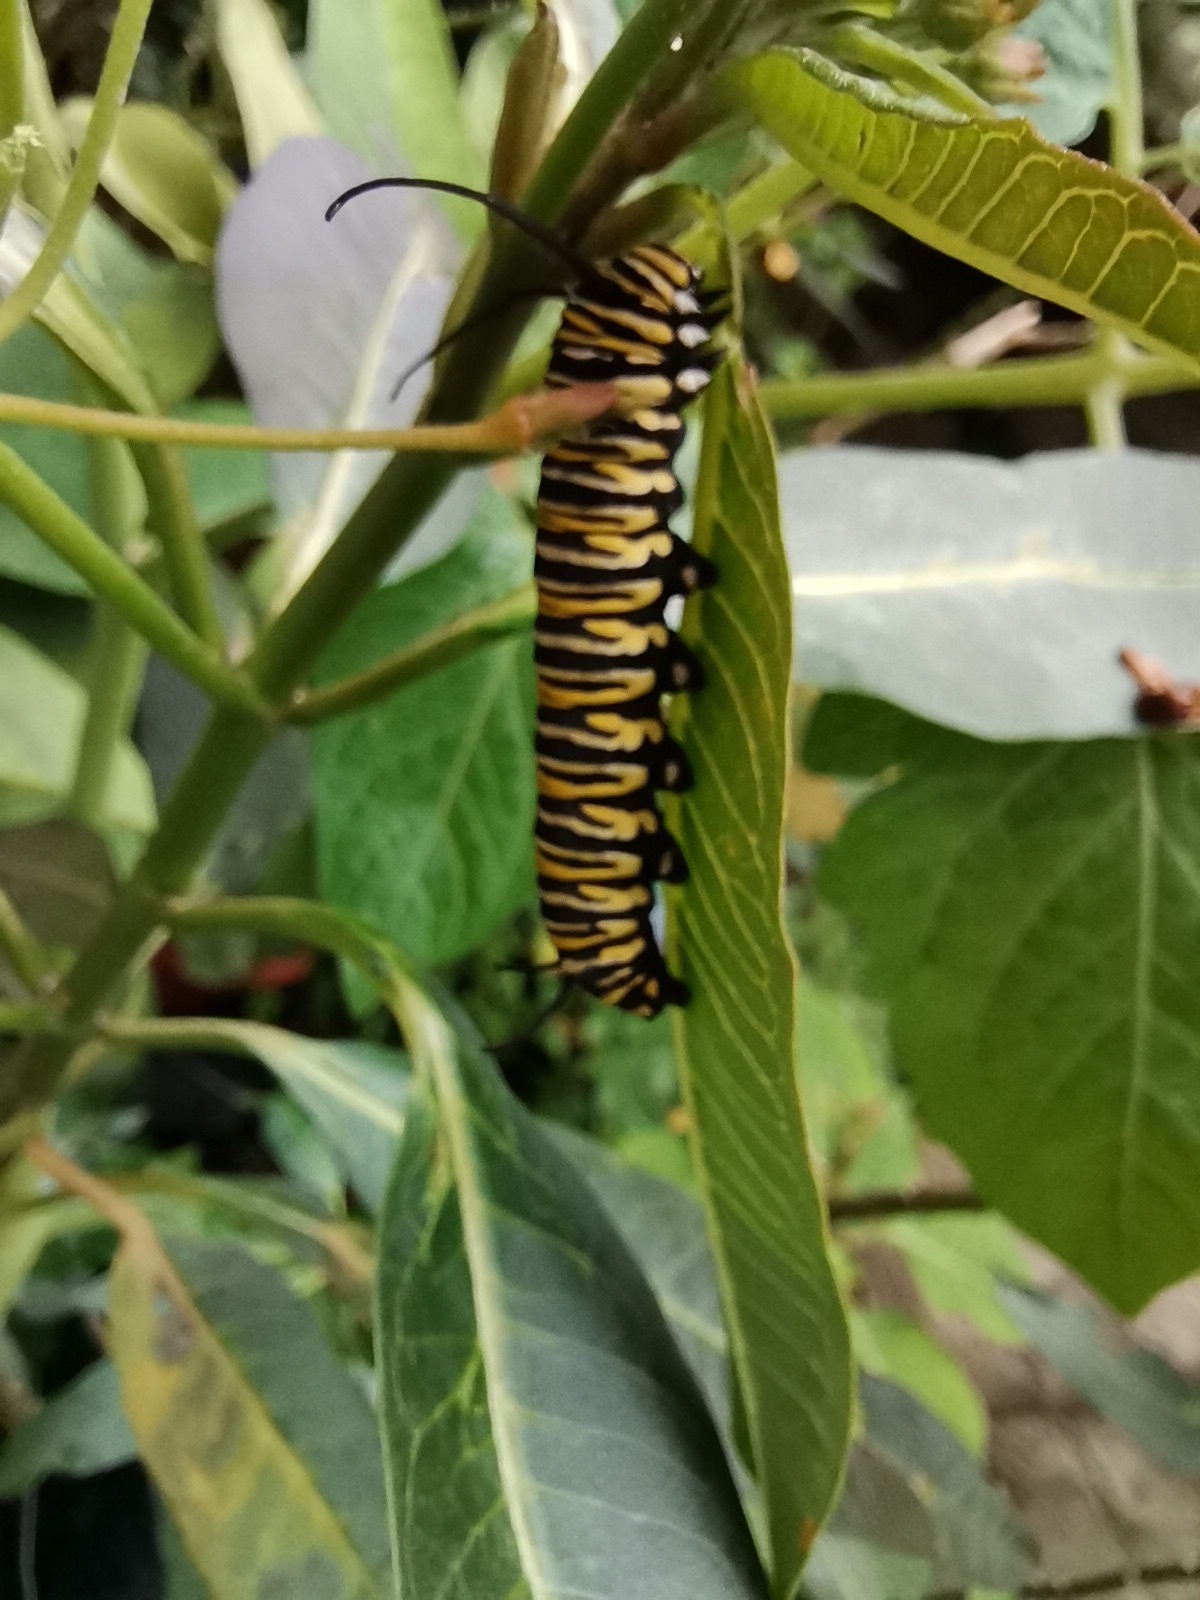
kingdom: Animalia
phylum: Arthropoda
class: Insecta
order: Lepidoptera
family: Nymphalidae
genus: Danaus
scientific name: Danaus plexippus
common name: Monarch
